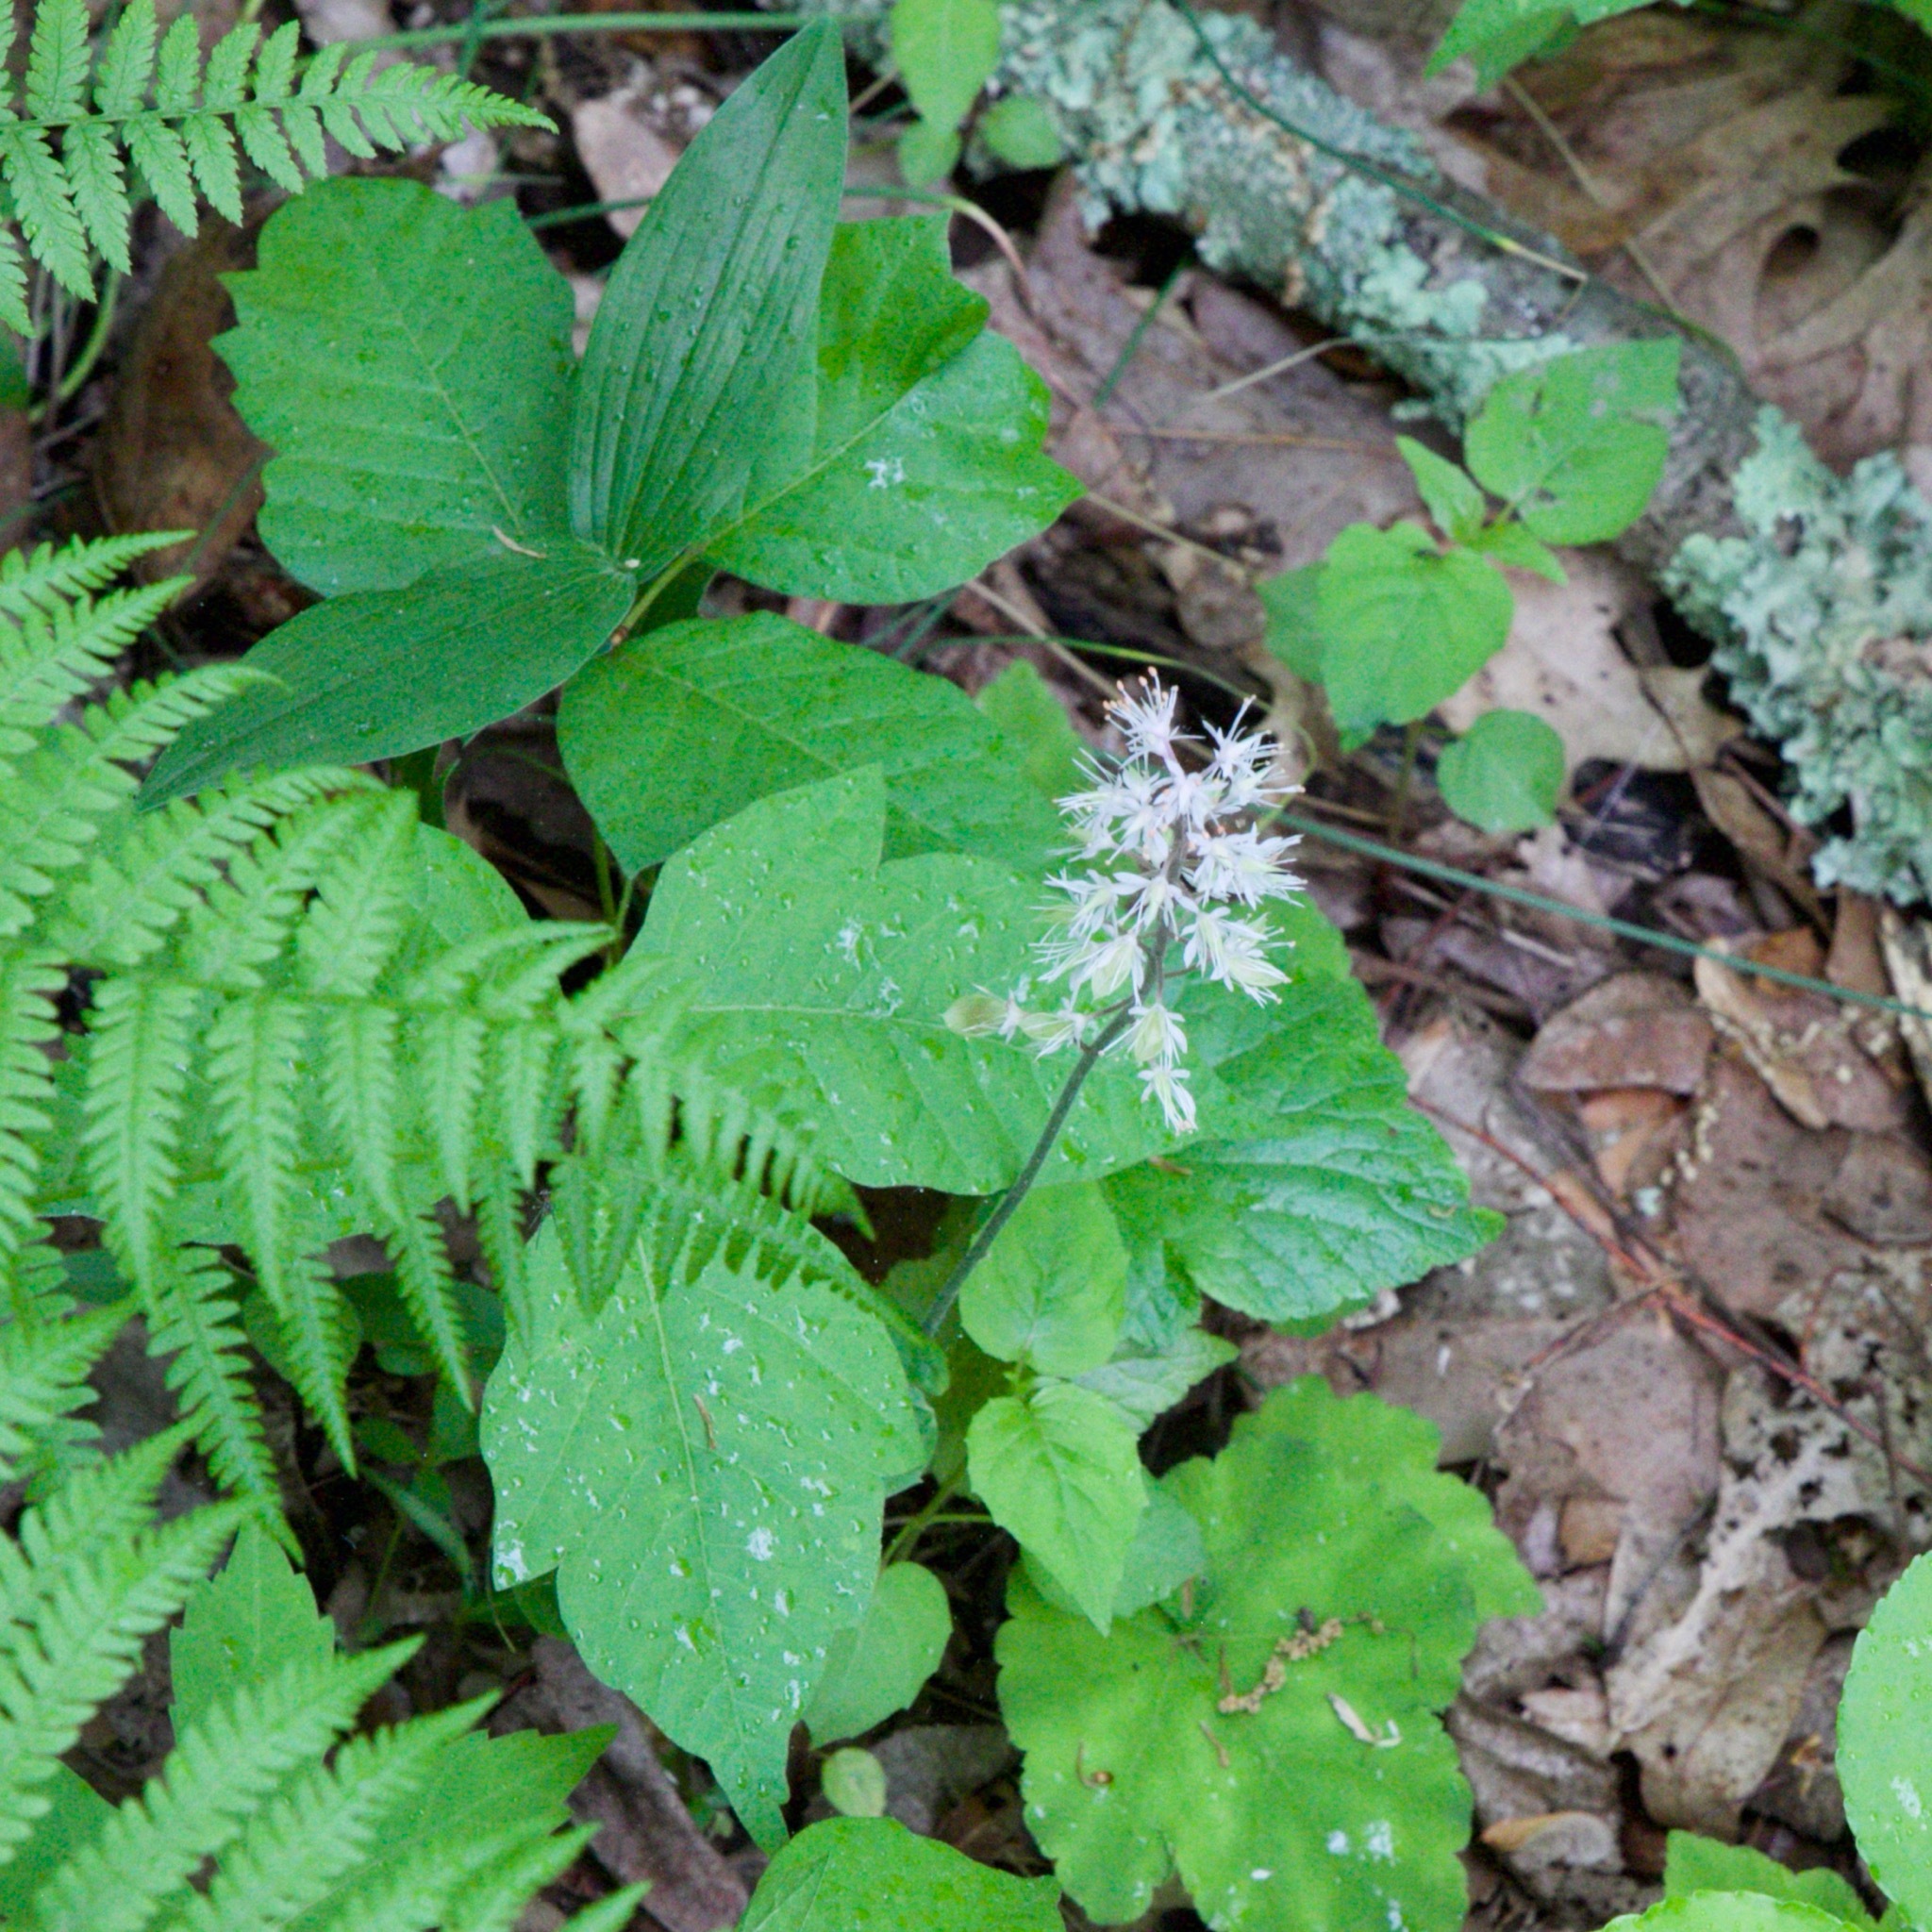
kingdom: Plantae
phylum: Tracheophyta
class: Magnoliopsida
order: Saxifragales
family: Saxifragaceae
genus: Tiarella
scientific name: Tiarella stolonifera
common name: Stoloniferous foamflower
